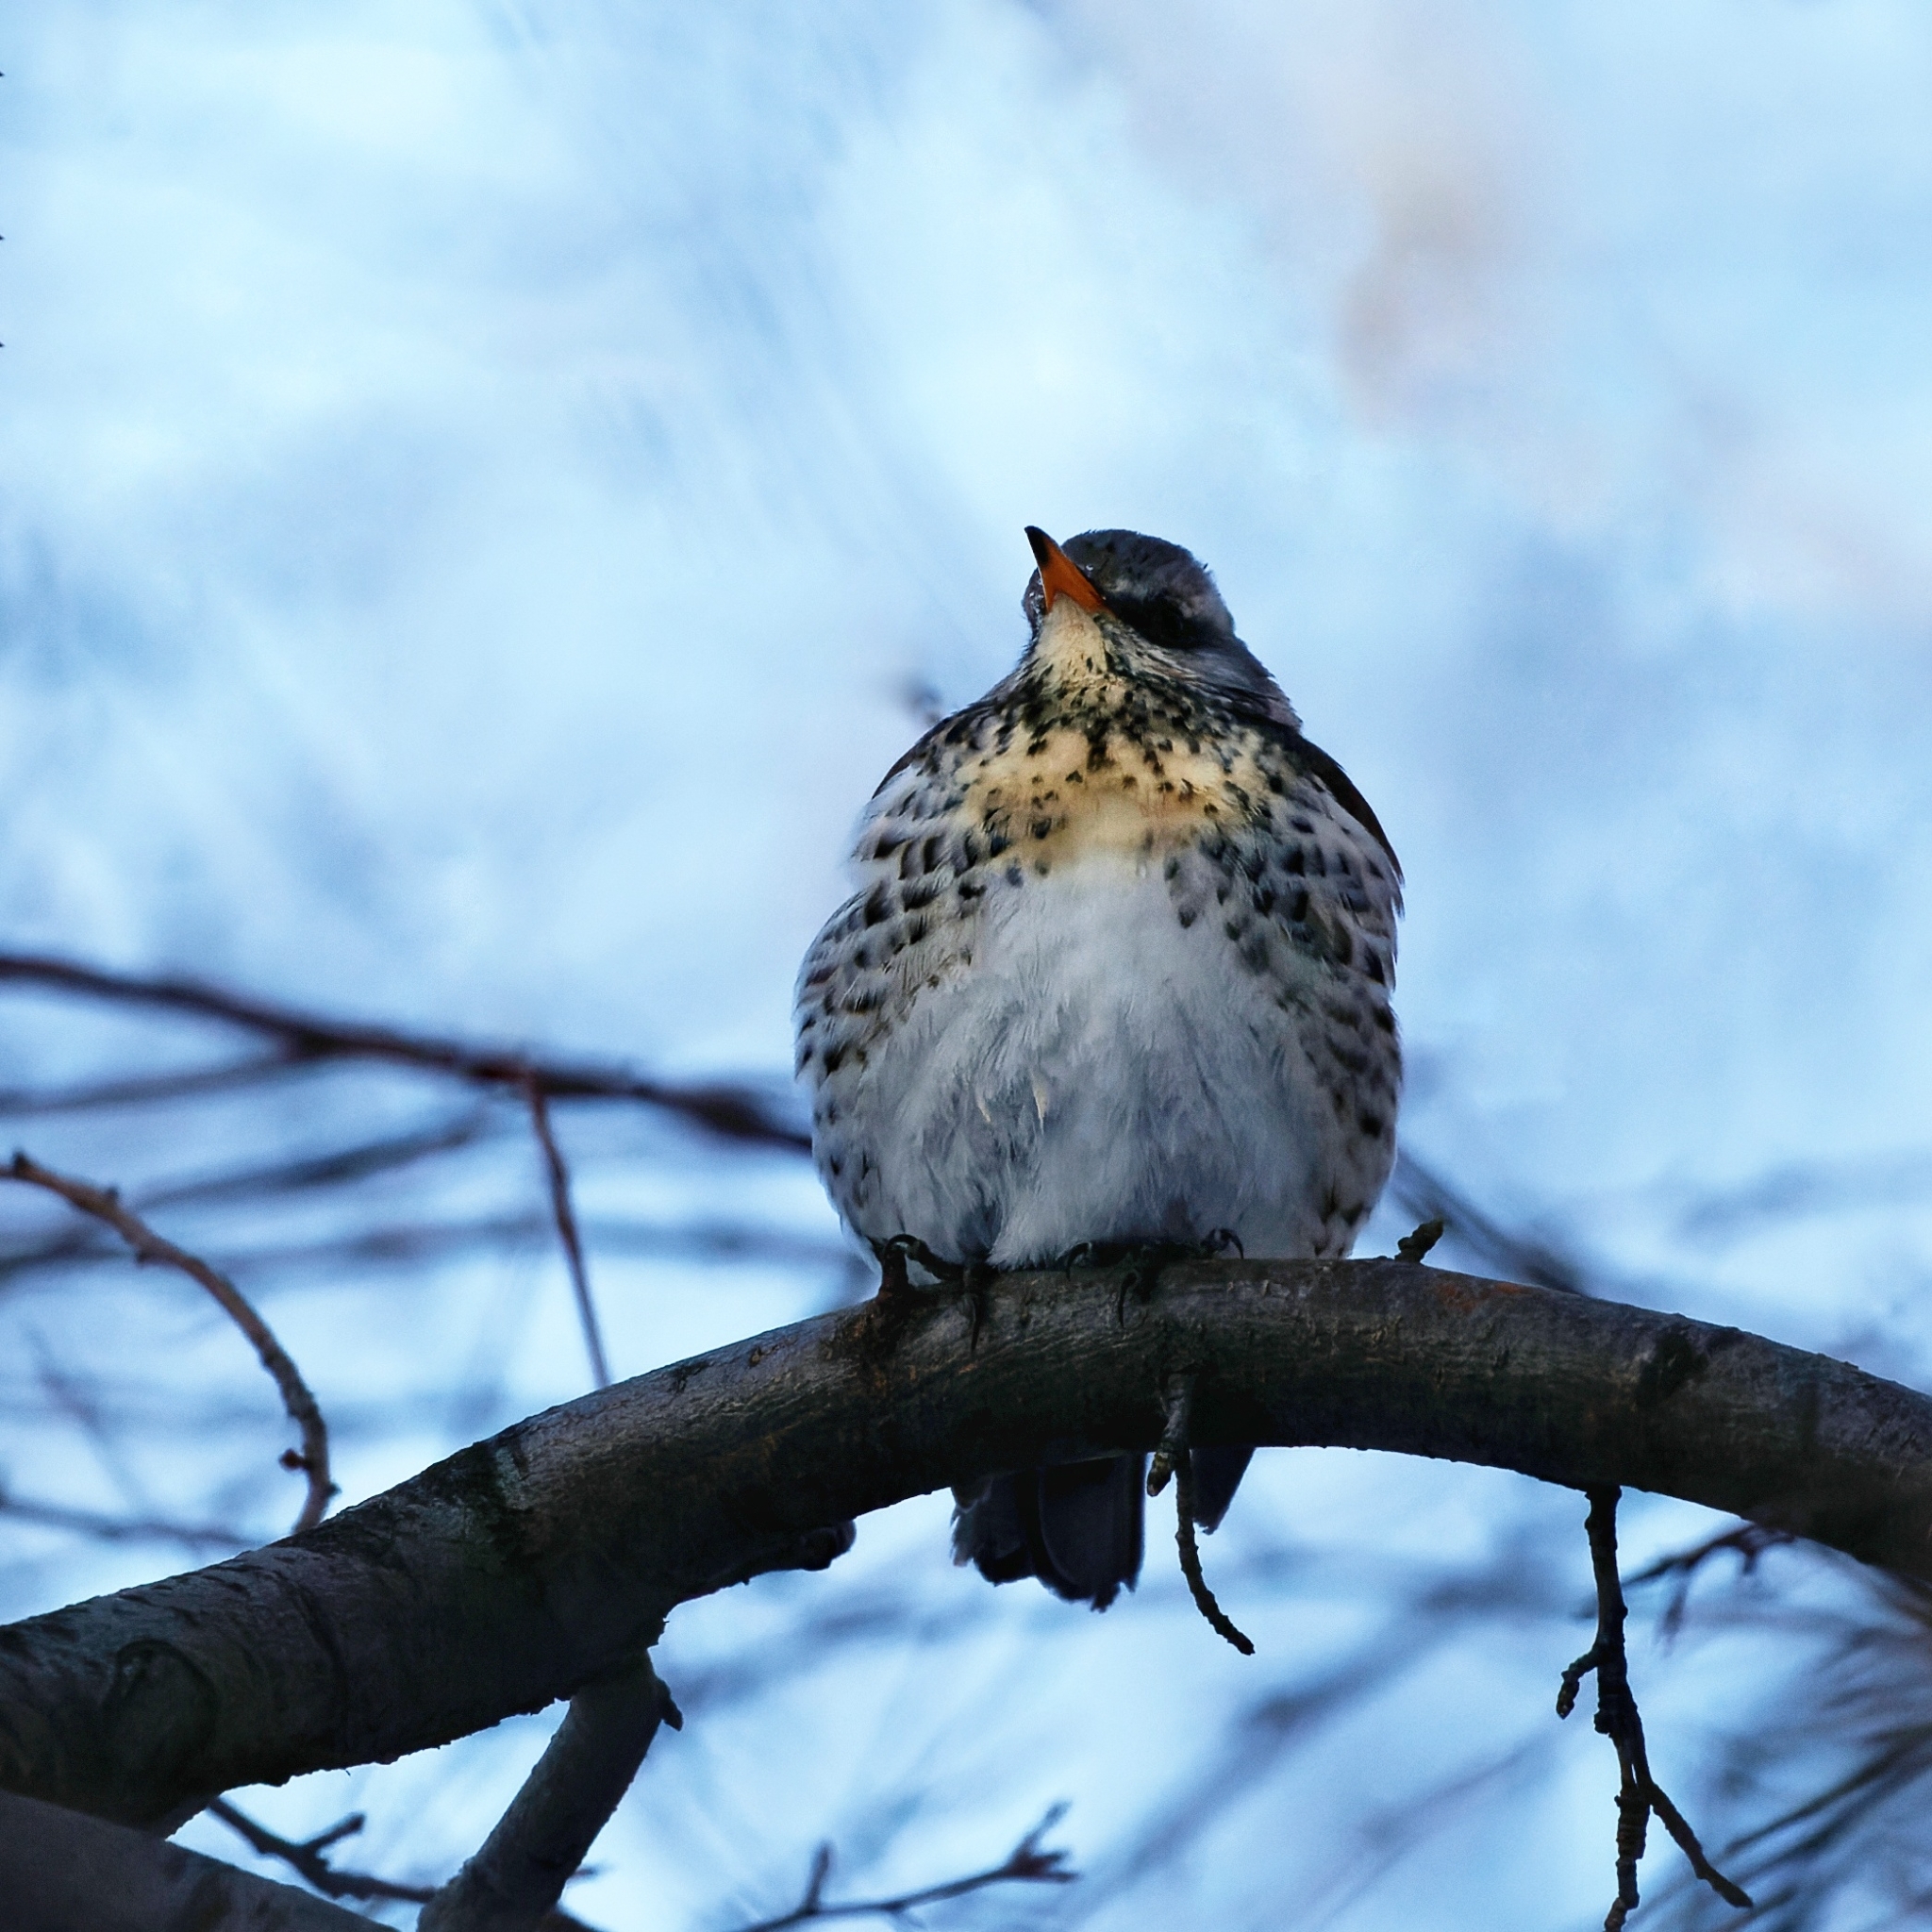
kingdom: Animalia
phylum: Chordata
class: Aves
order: Passeriformes
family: Turdidae
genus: Turdus
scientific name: Turdus pilaris
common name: Fieldfare
